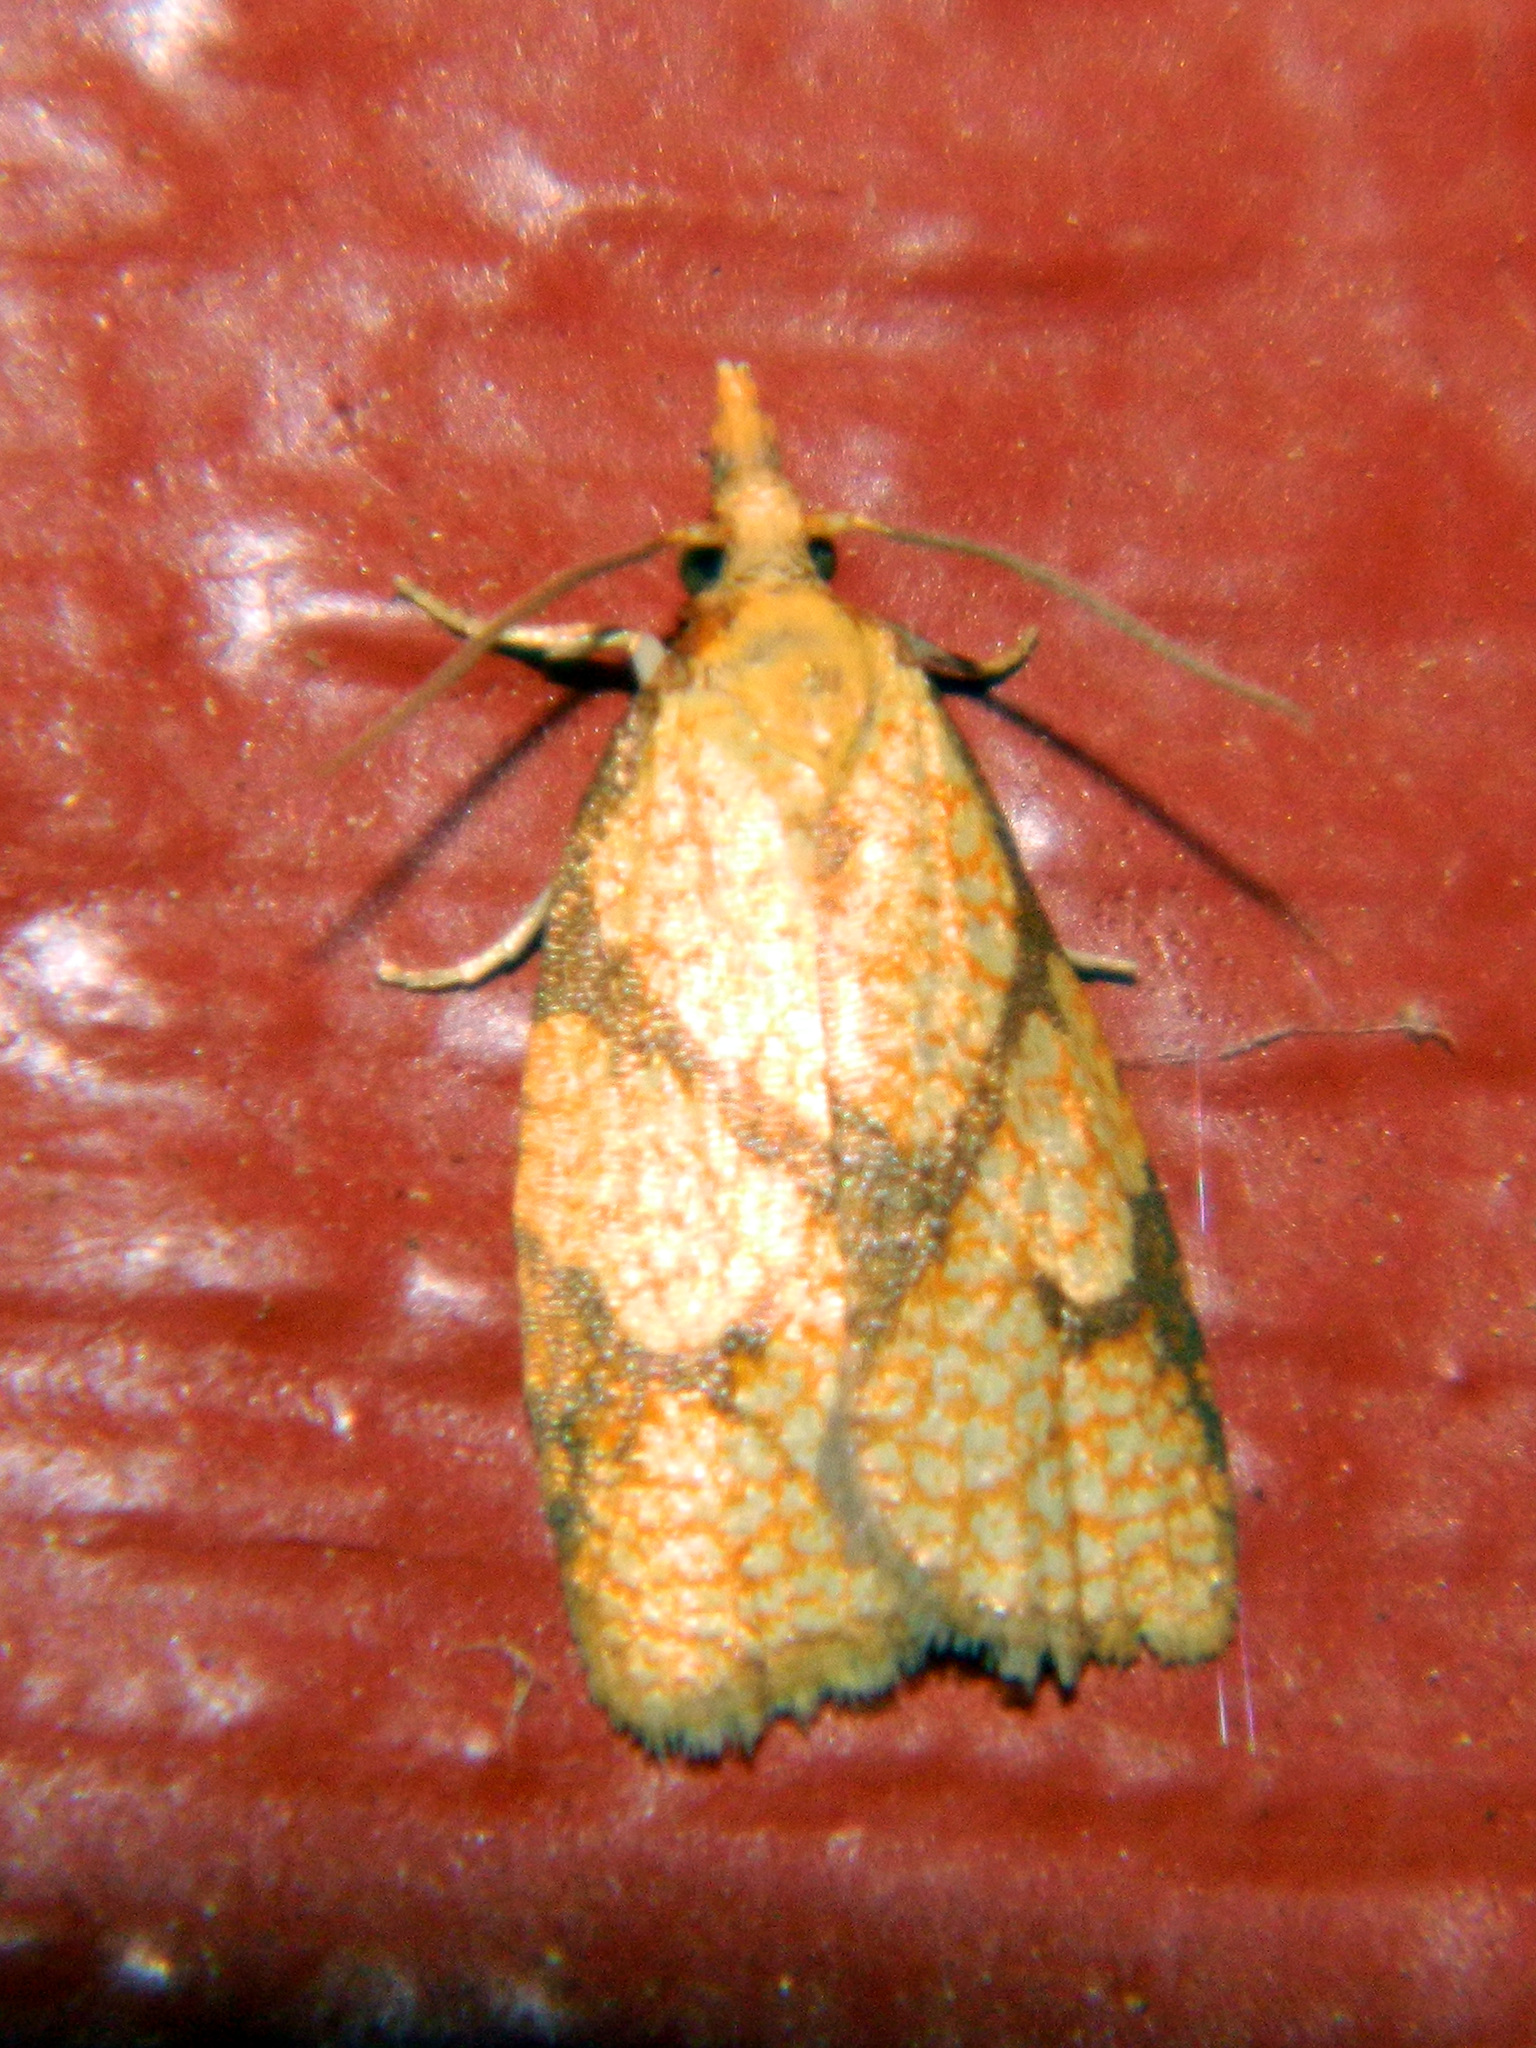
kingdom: Animalia
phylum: Arthropoda
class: Insecta
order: Lepidoptera
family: Tortricidae
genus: Cenopis
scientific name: Cenopis reticulatana
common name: Reticulated fruitworm moth
